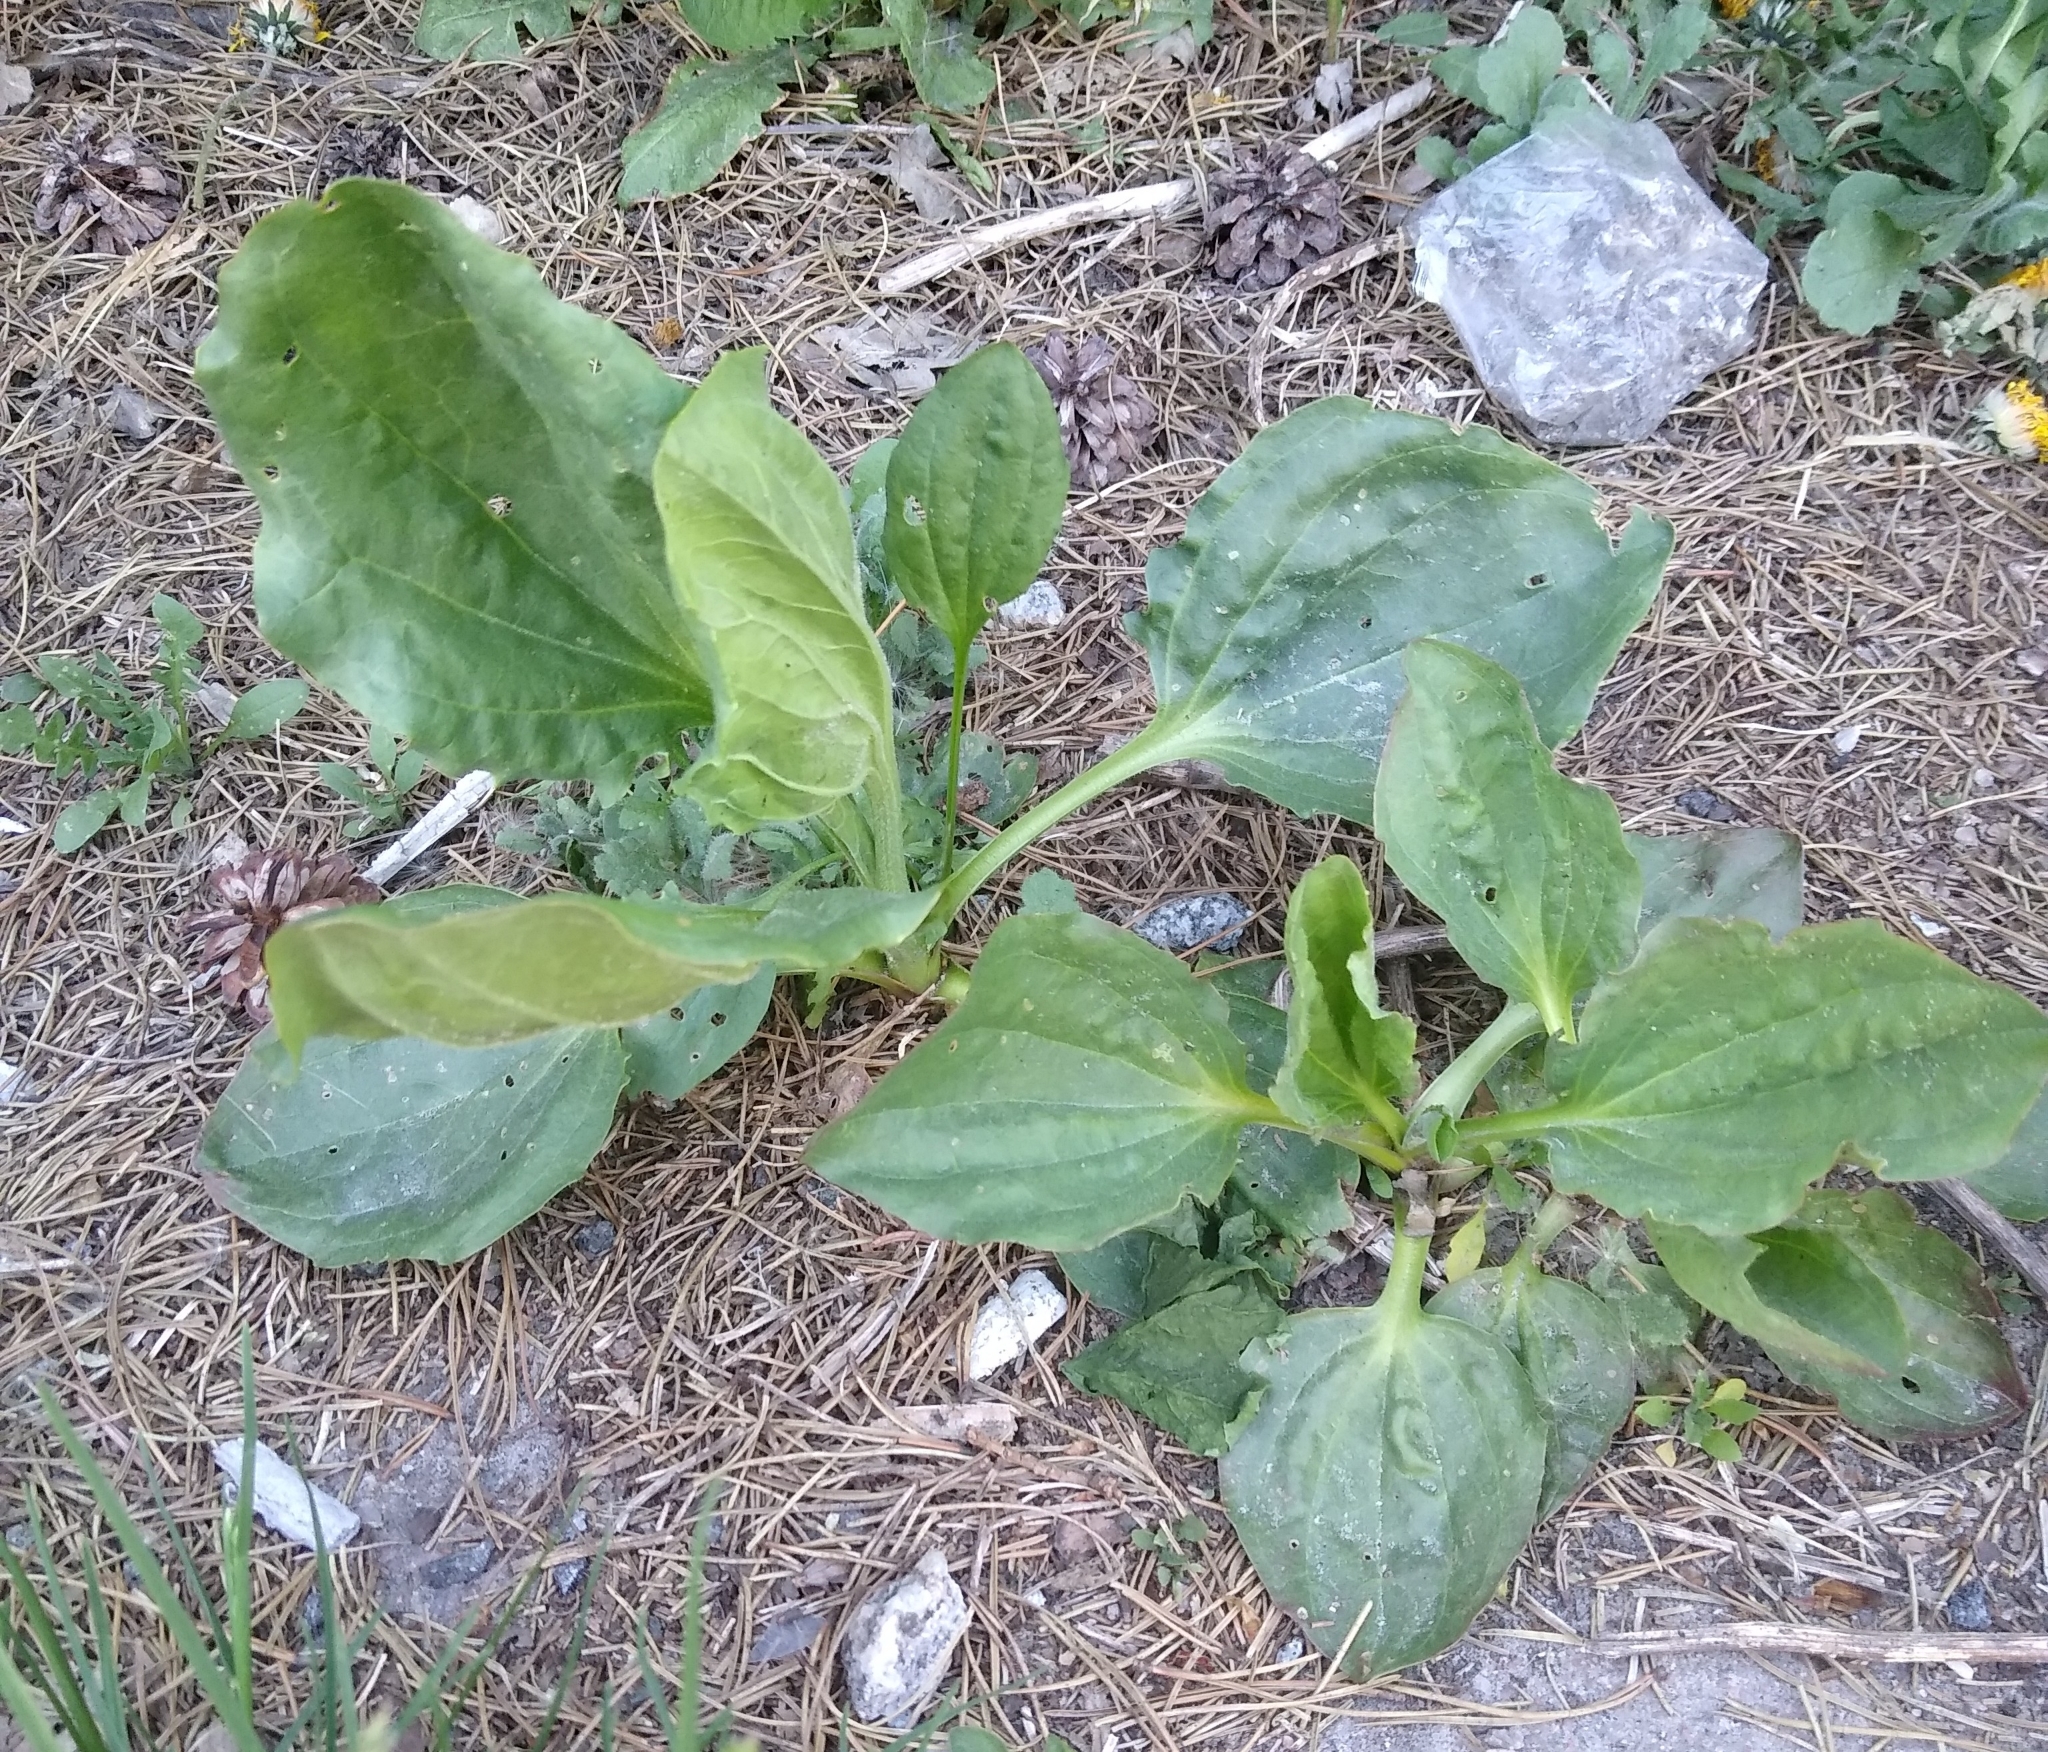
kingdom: Plantae
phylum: Tracheophyta
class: Magnoliopsida
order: Lamiales
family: Plantaginaceae
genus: Plantago
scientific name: Plantago major
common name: Common plantain
